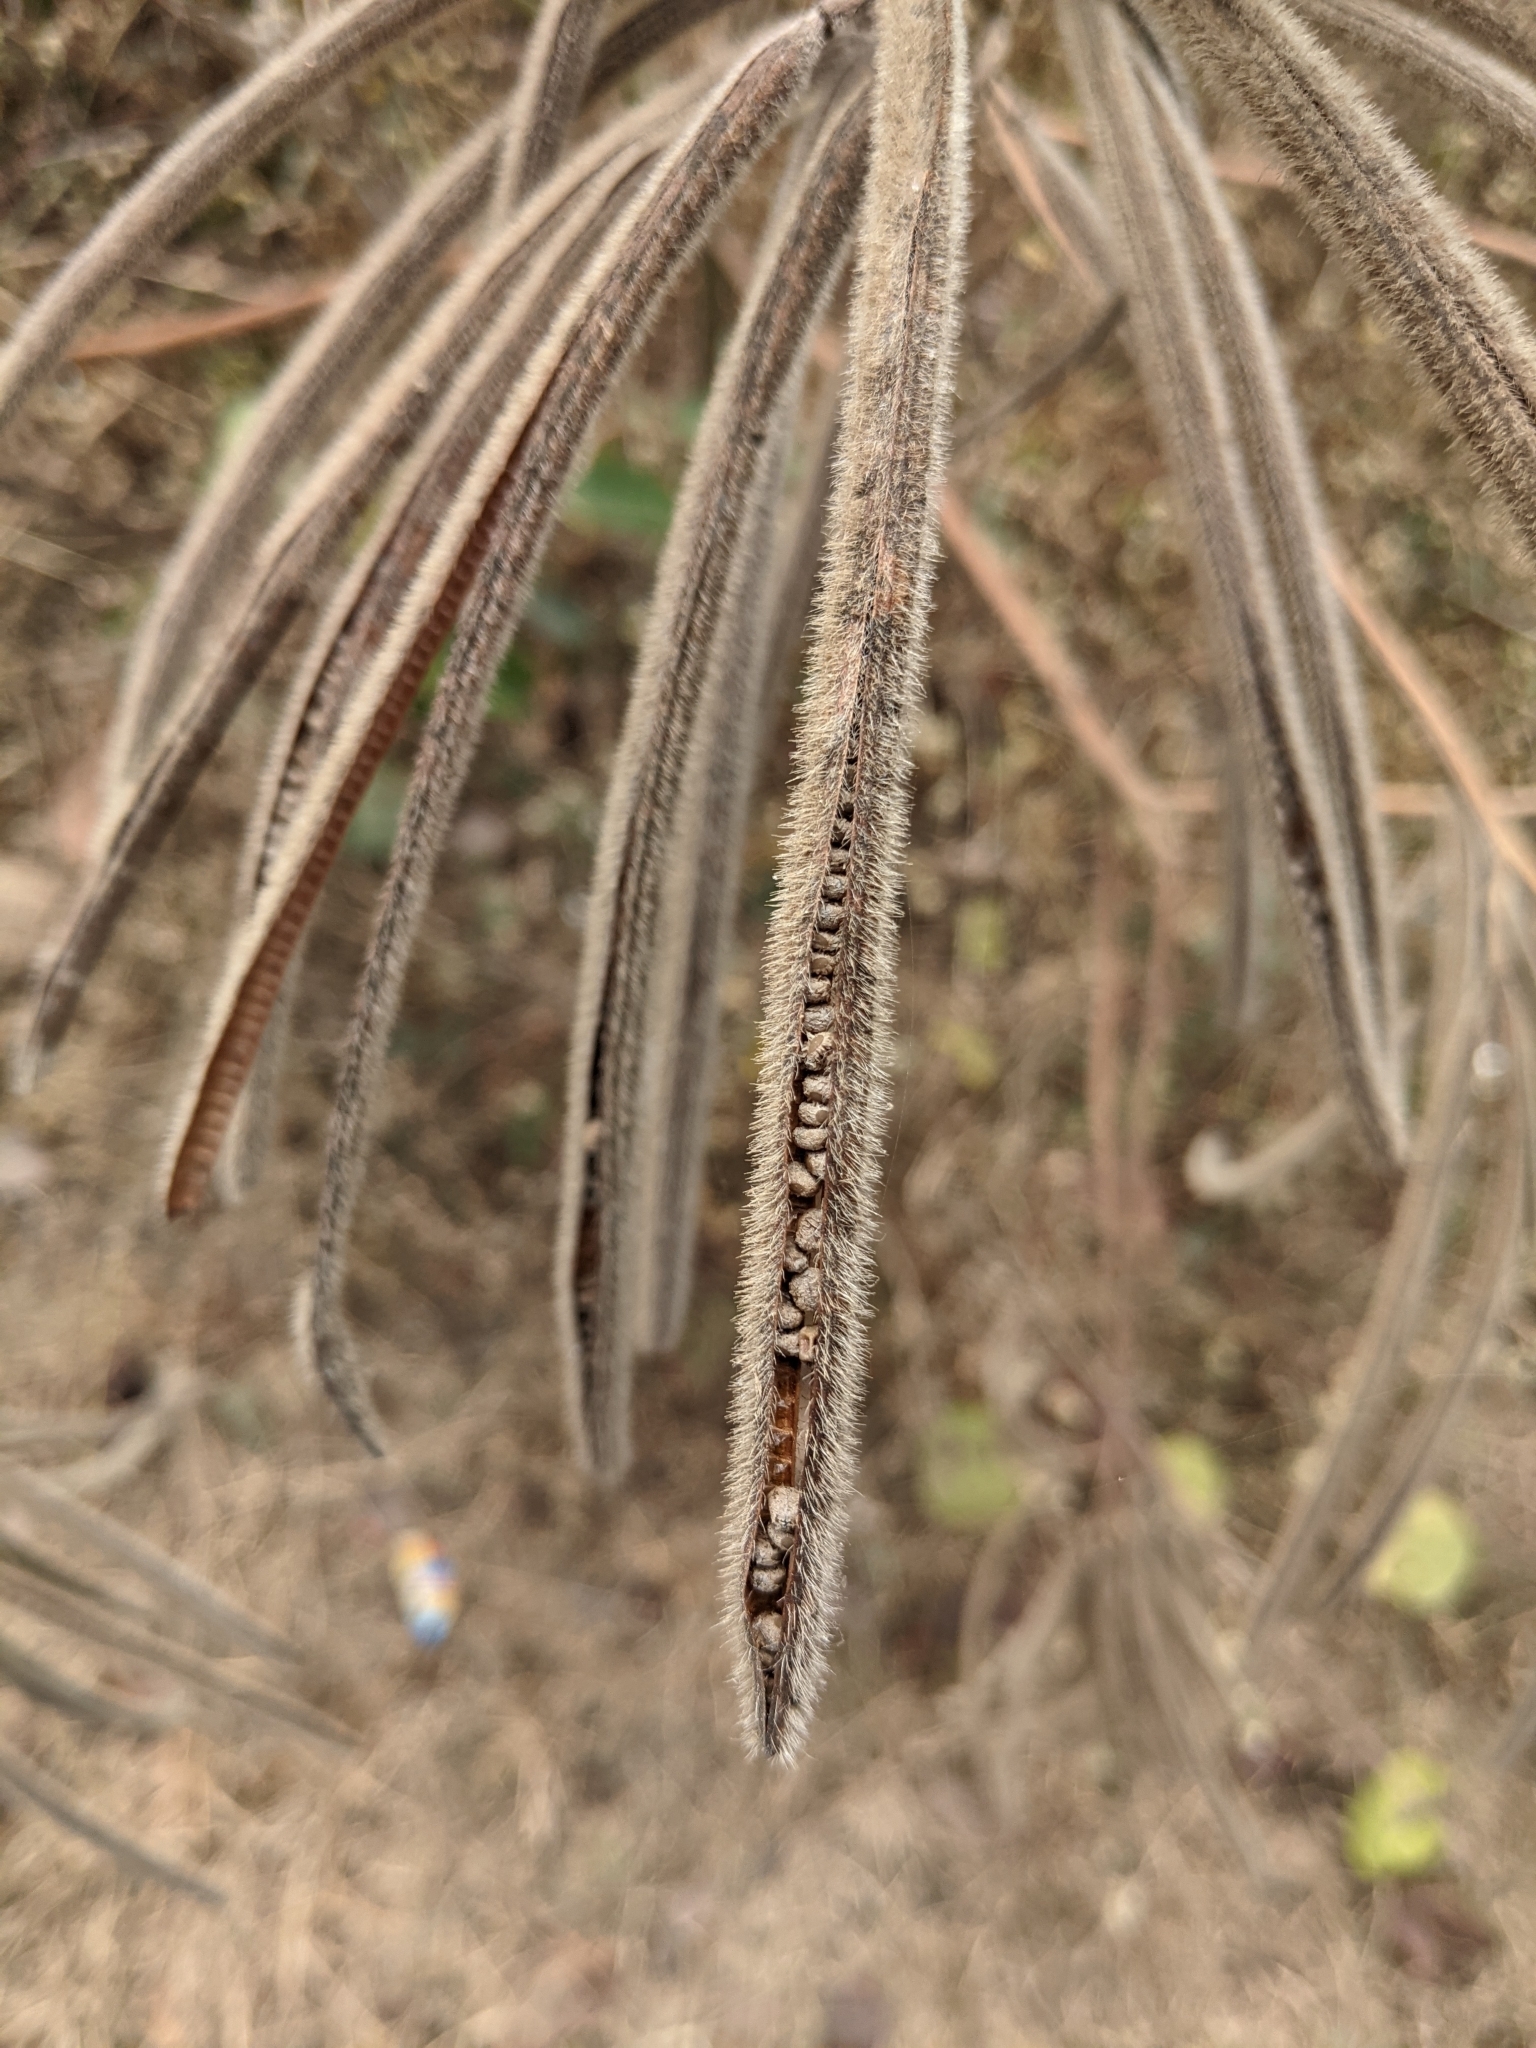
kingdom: Plantae
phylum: Tracheophyta
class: Magnoliopsida
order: Fabales
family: Fabaceae
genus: Senna
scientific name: Senna hirsuta
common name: Woolly senna
